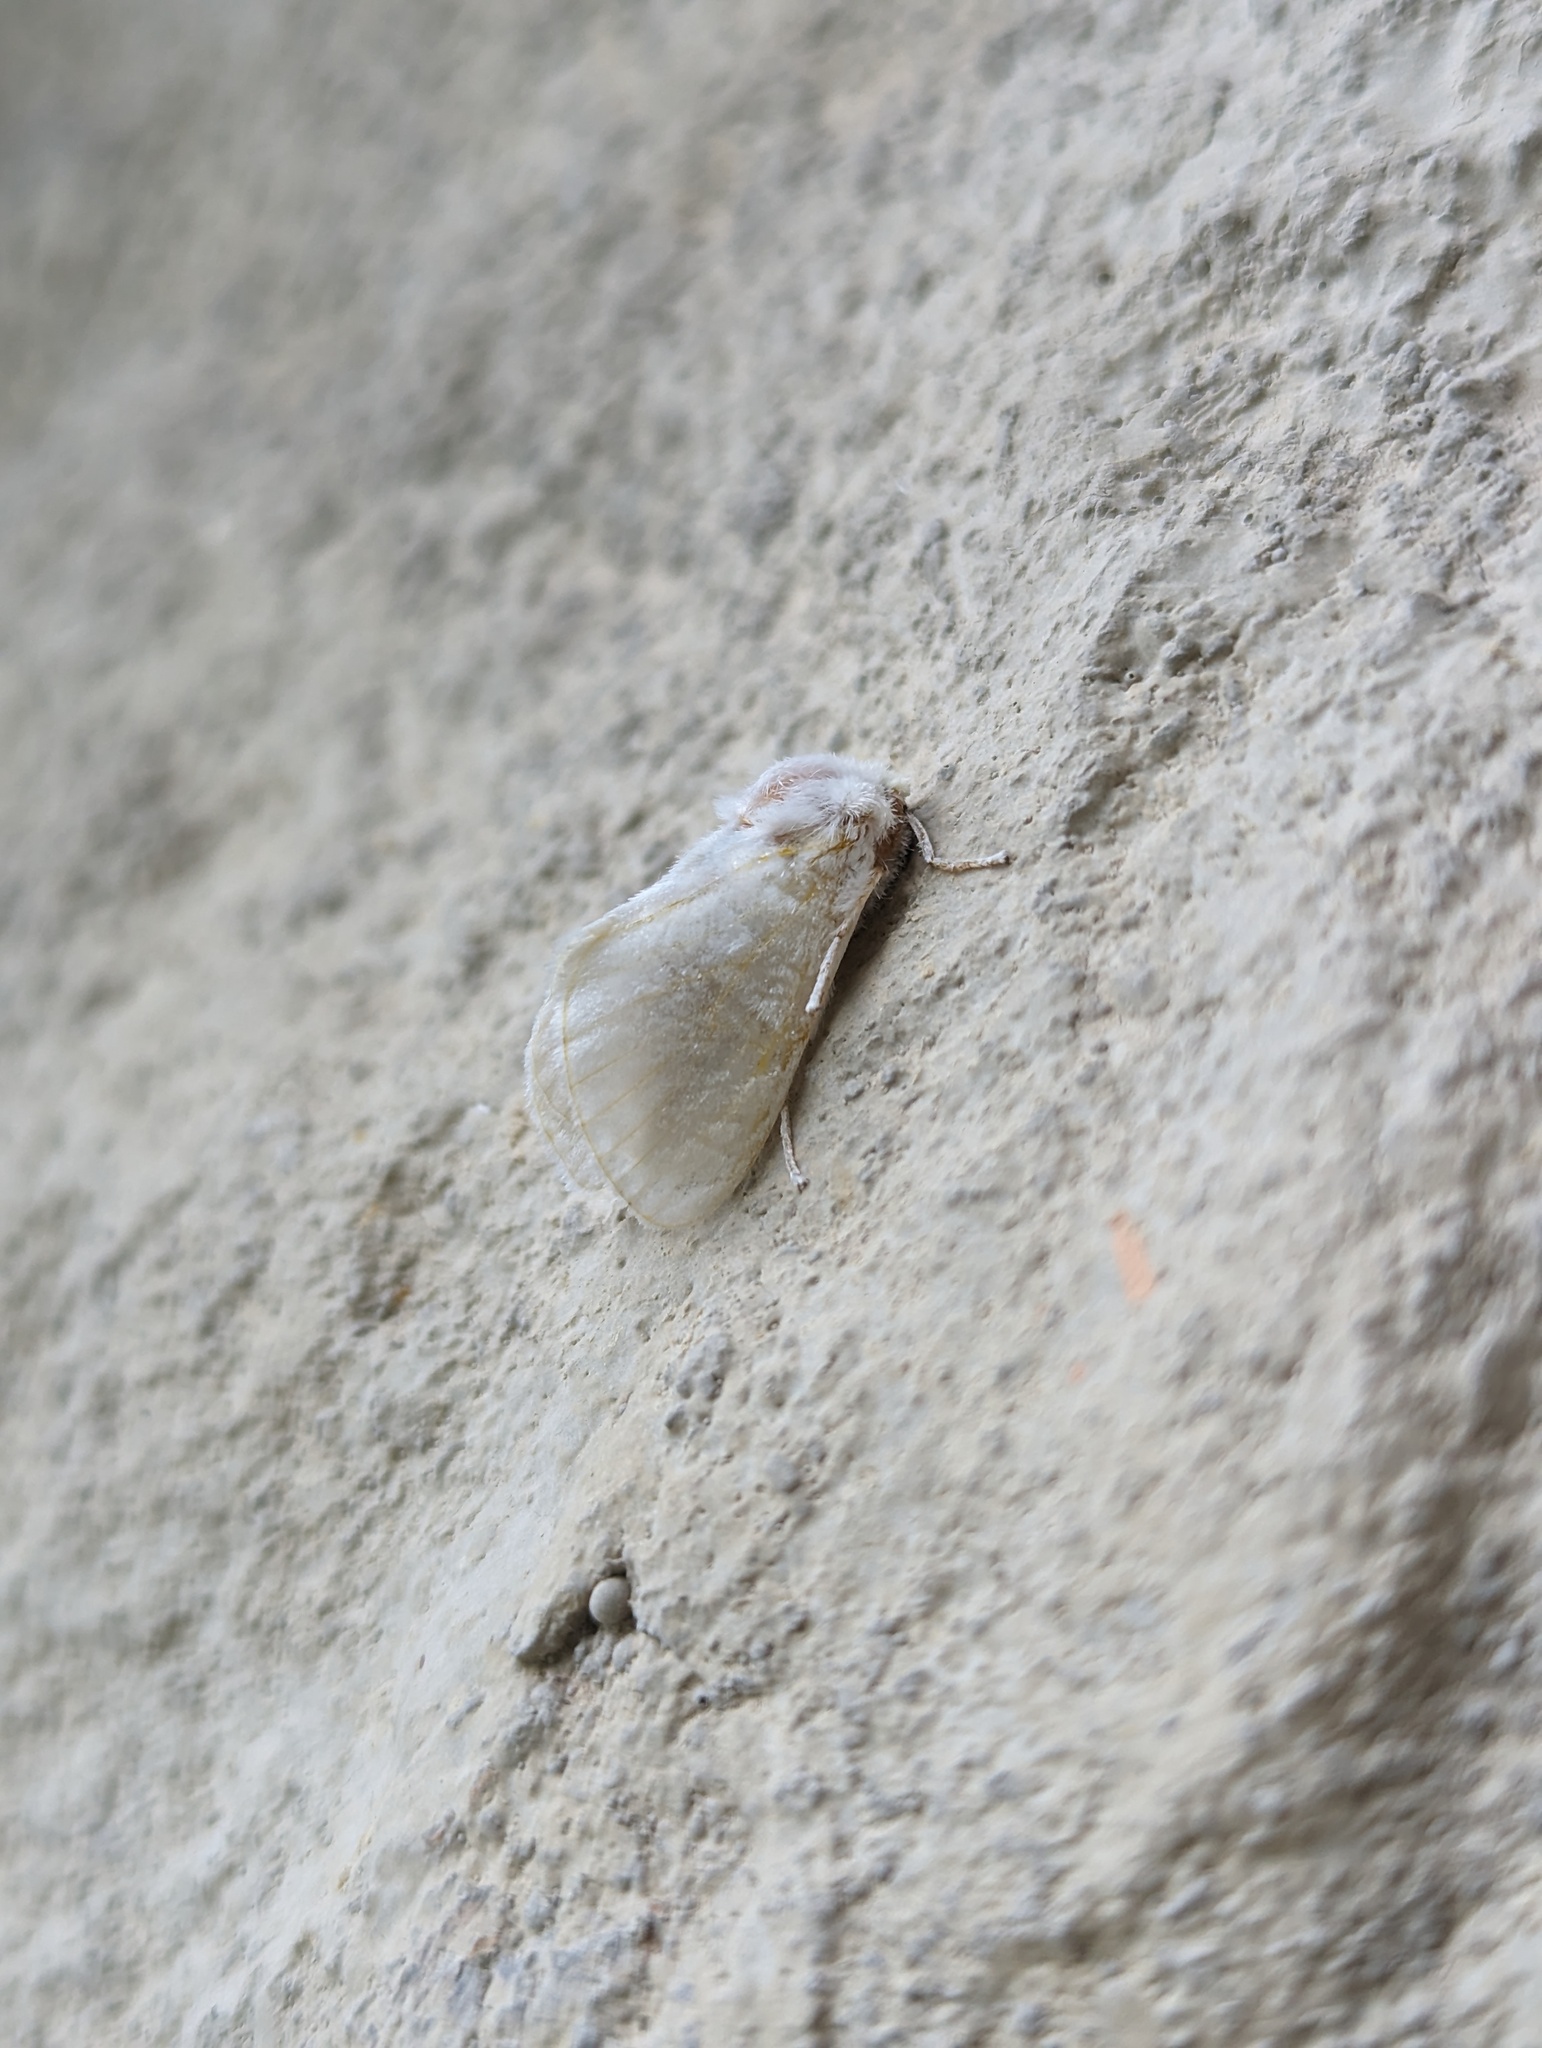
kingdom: Animalia
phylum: Arthropoda
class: Insecta
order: Lepidoptera
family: Megalopygidae
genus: Norape
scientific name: Norape cretata
